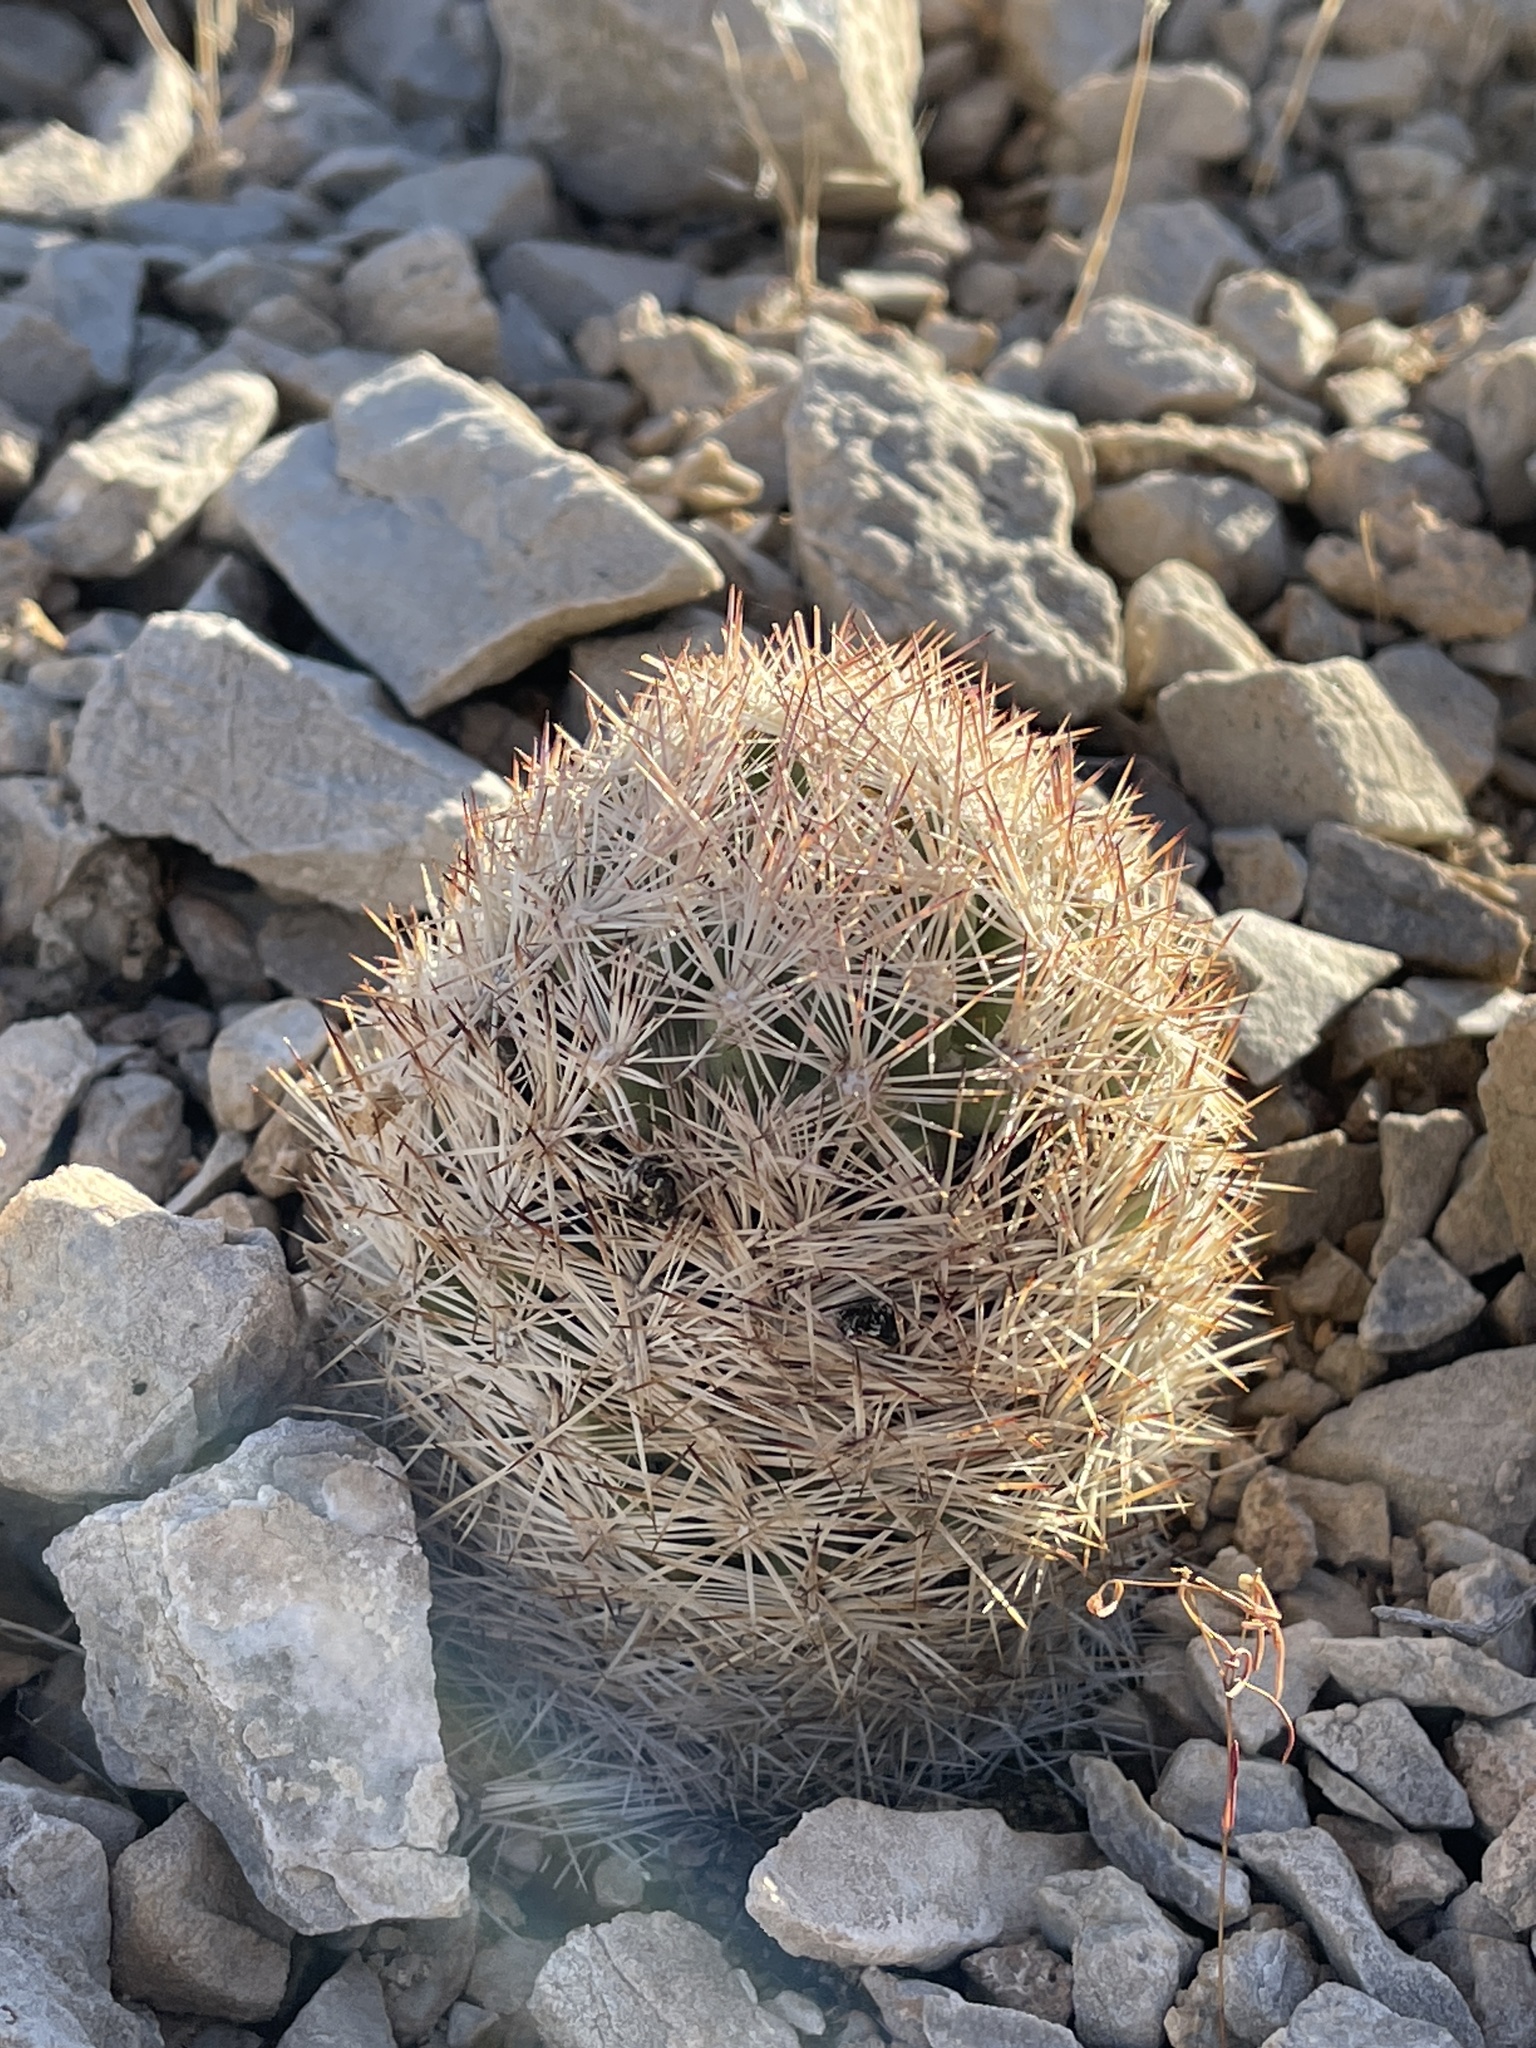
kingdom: Plantae
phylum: Tracheophyta
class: Magnoliopsida
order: Caryophyllales
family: Cactaceae
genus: Pelecyphora
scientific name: Pelecyphora dasyacantha
